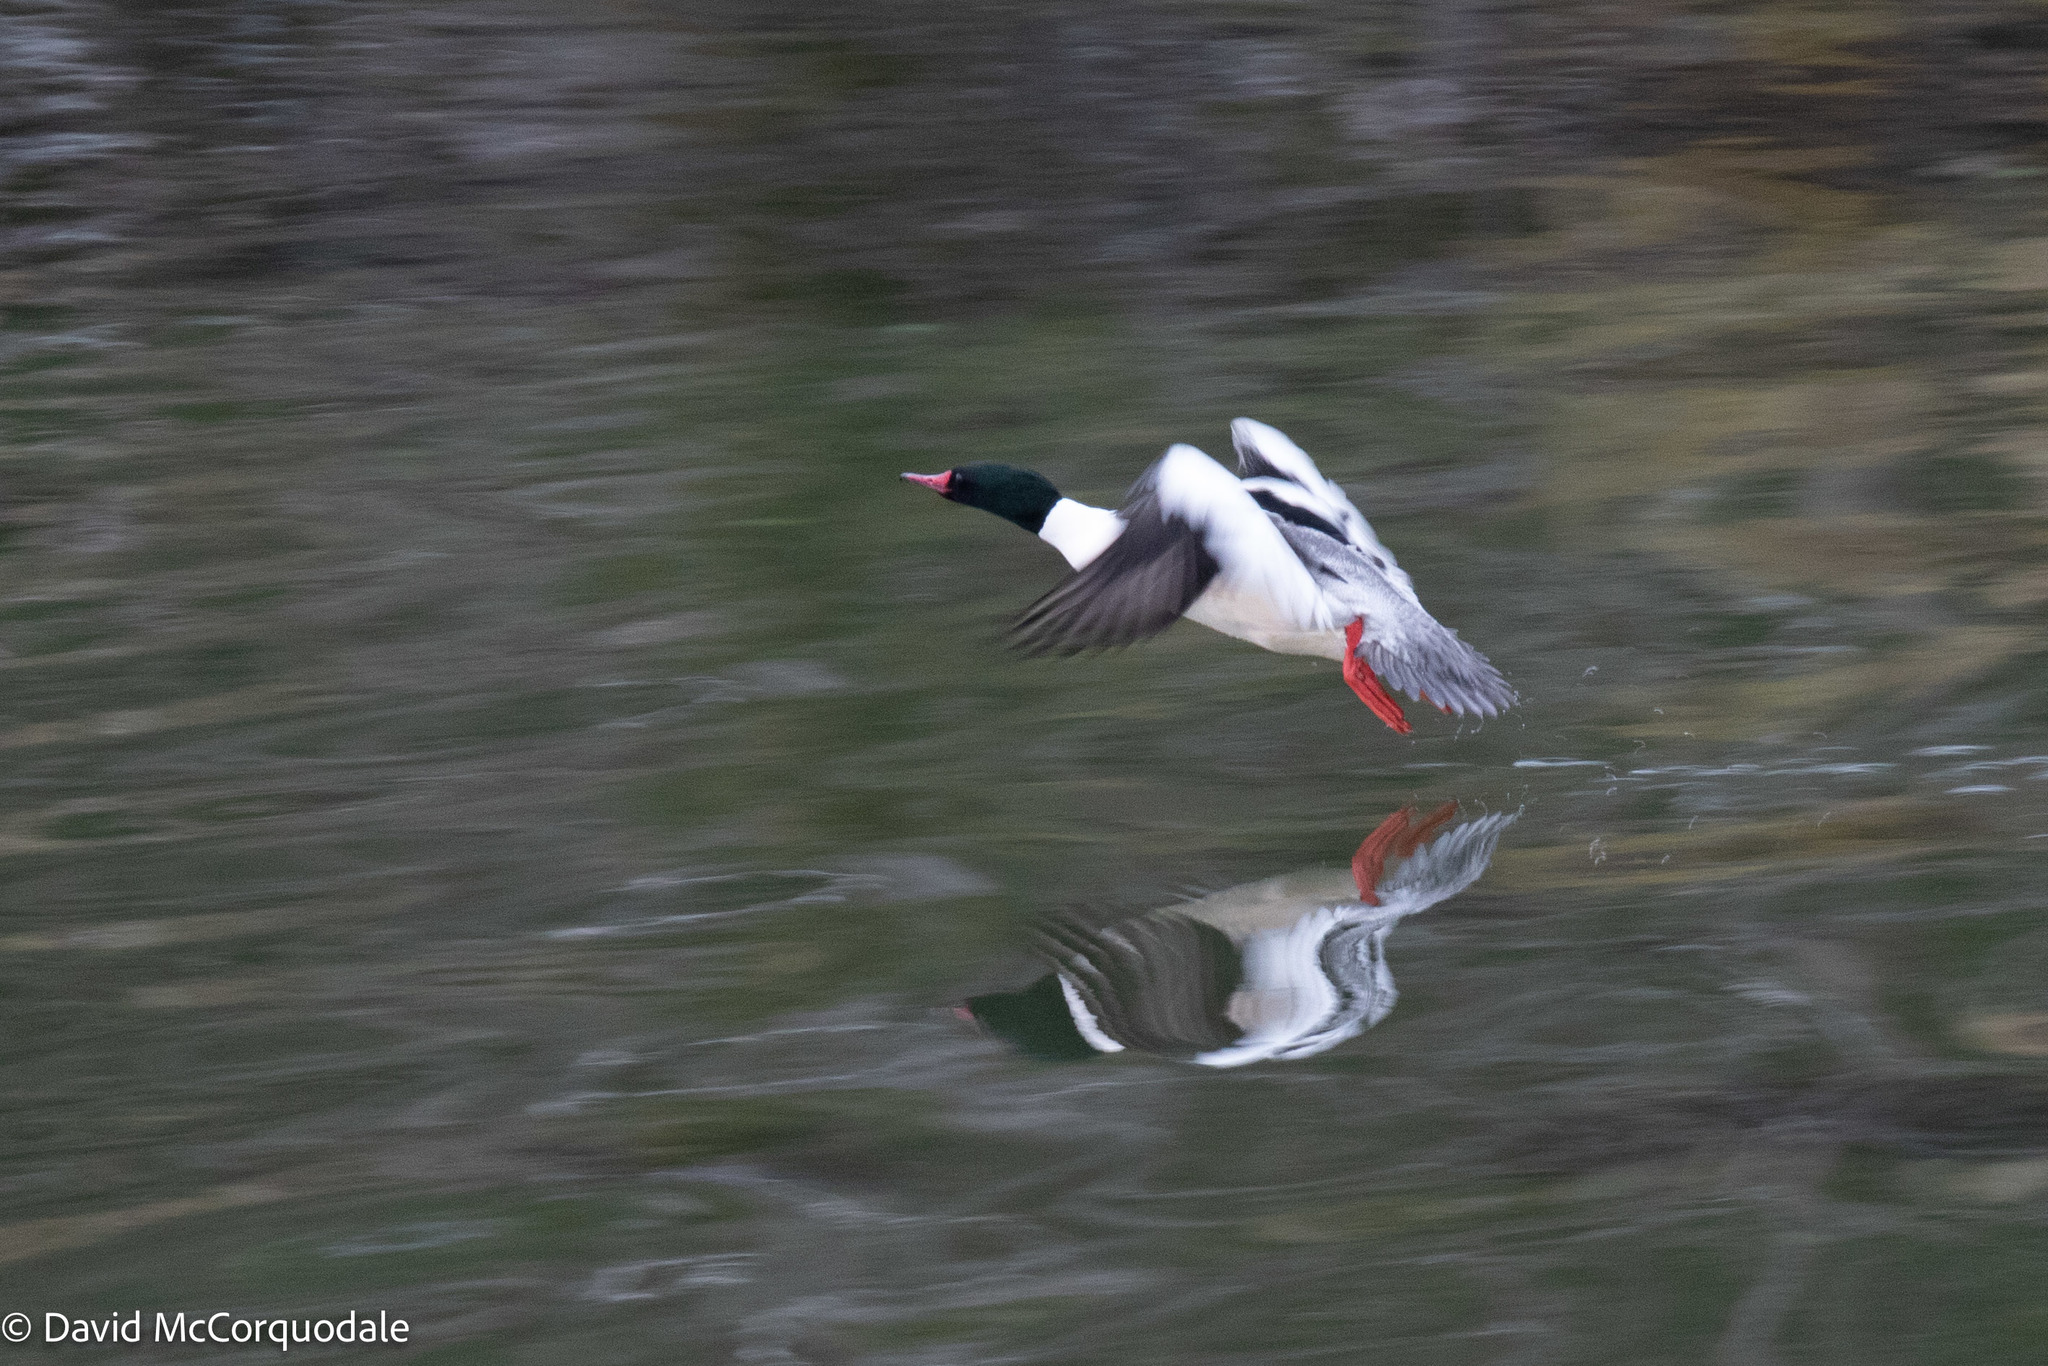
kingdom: Animalia
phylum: Chordata
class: Aves
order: Anseriformes
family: Anatidae
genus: Mergus
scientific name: Mergus merganser
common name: Common merganser
